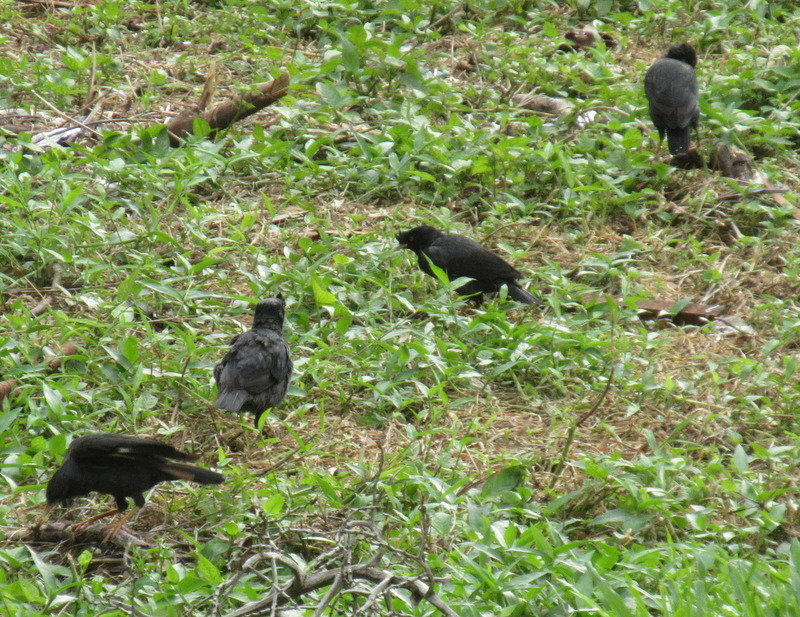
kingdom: Animalia
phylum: Chordata
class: Aves
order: Passeriformes
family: Sturnidae
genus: Acridotheres
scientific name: Acridotheres cristatellus
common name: Crested myna
